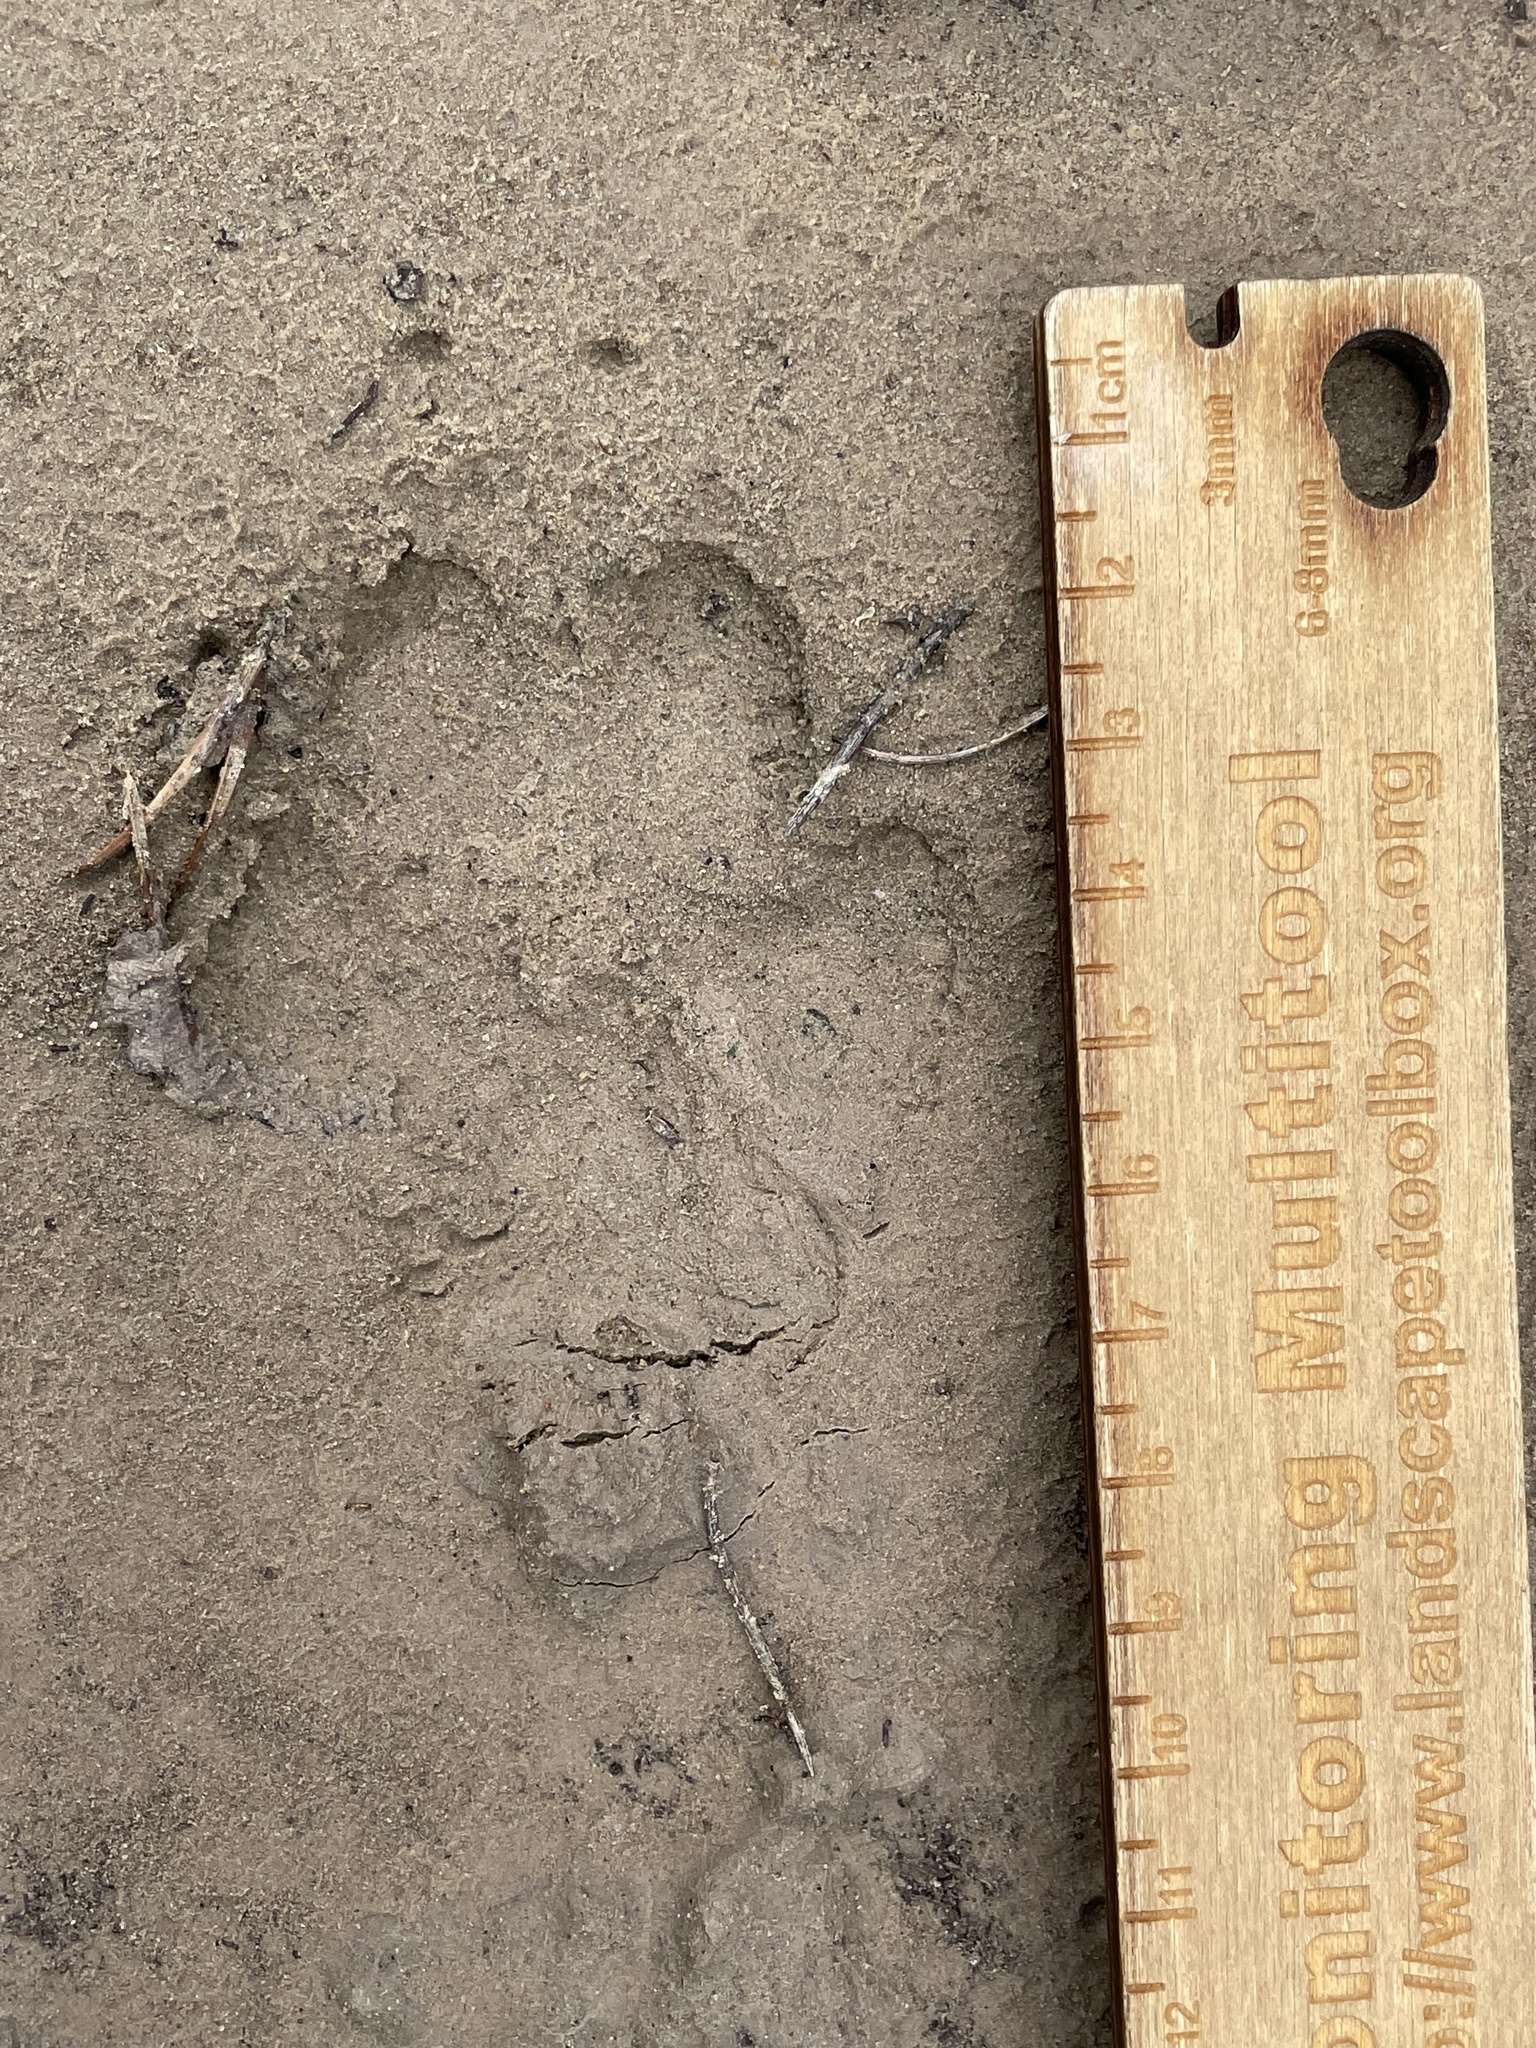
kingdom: Animalia
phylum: Chordata
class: Mammalia
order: Carnivora
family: Canidae
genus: Canis
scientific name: Canis latrans
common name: Coyote
